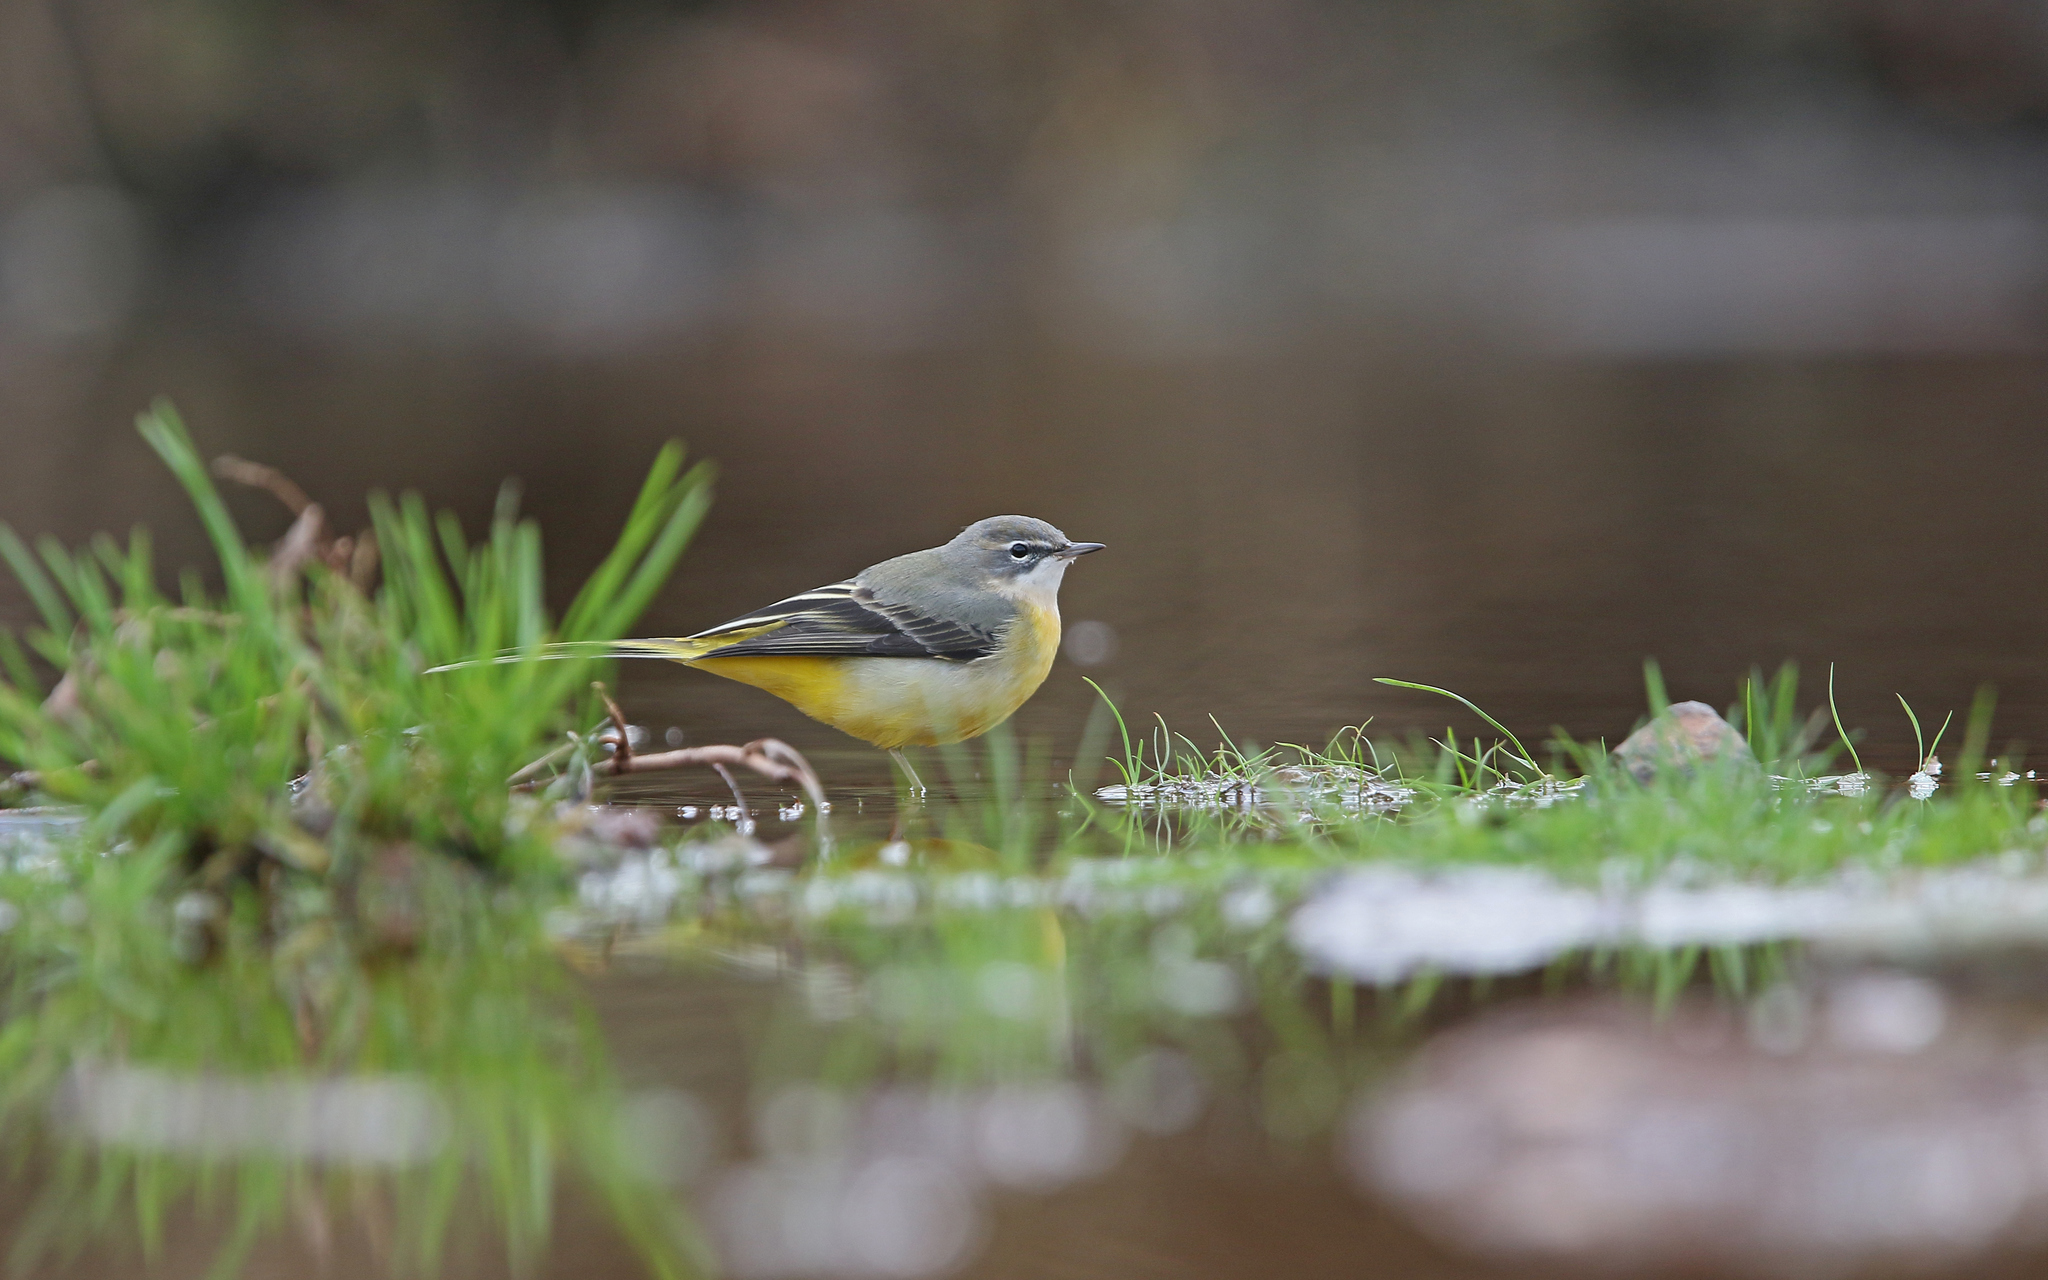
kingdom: Animalia
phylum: Chordata
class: Aves
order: Passeriformes
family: Motacillidae
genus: Motacilla
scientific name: Motacilla cinerea
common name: Grey wagtail
